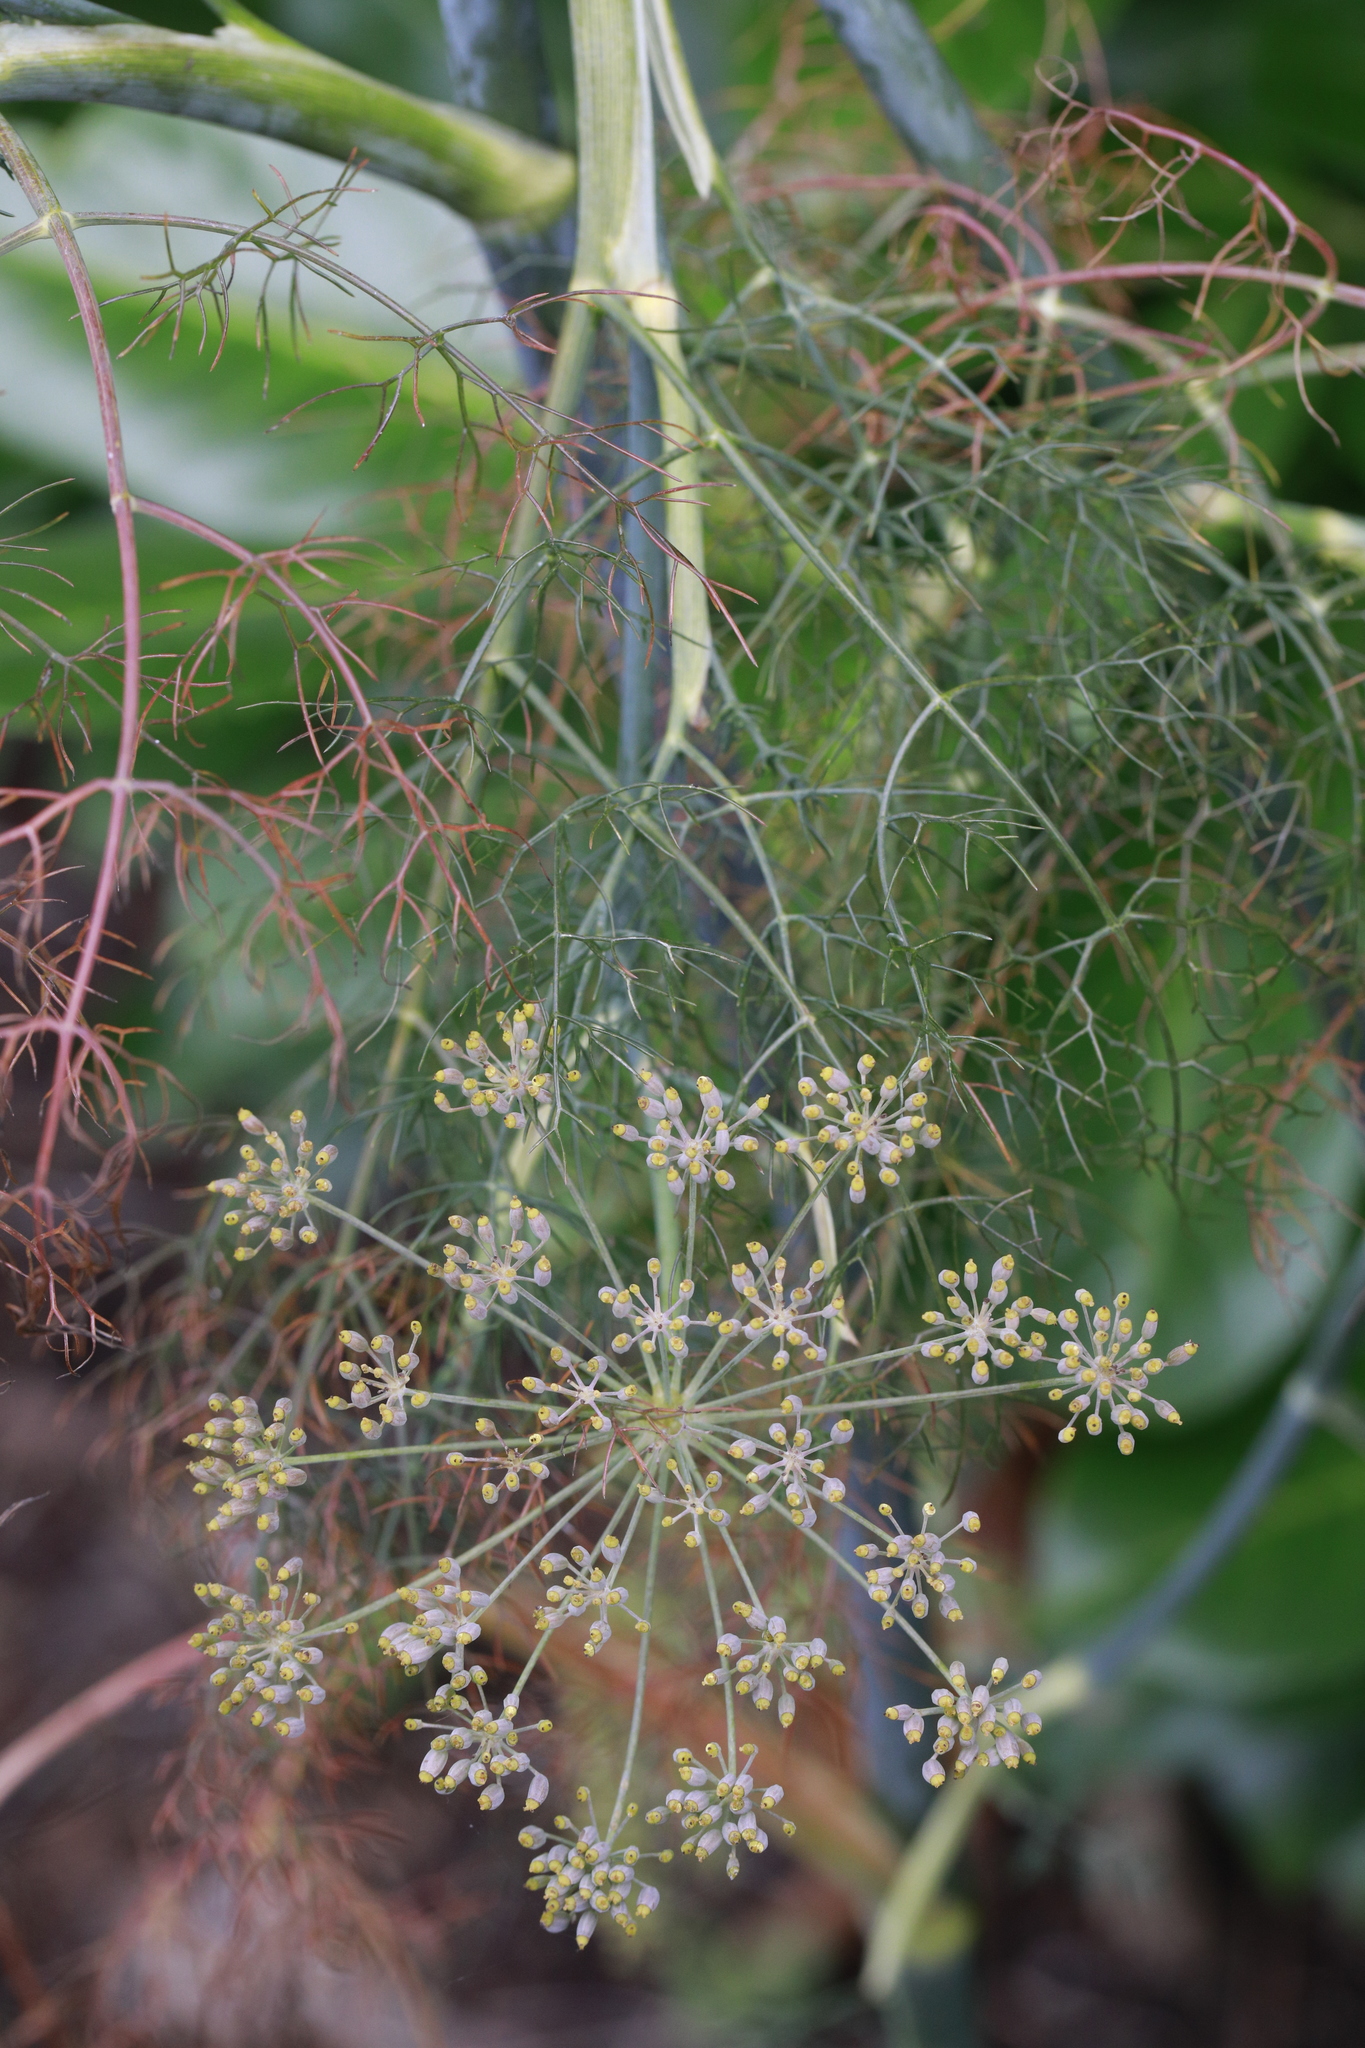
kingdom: Plantae
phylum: Tracheophyta
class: Magnoliopsida
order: Apiales
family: Apiaceae
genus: Foeniculum
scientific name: Foeniculum vulgare
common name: Fennel
